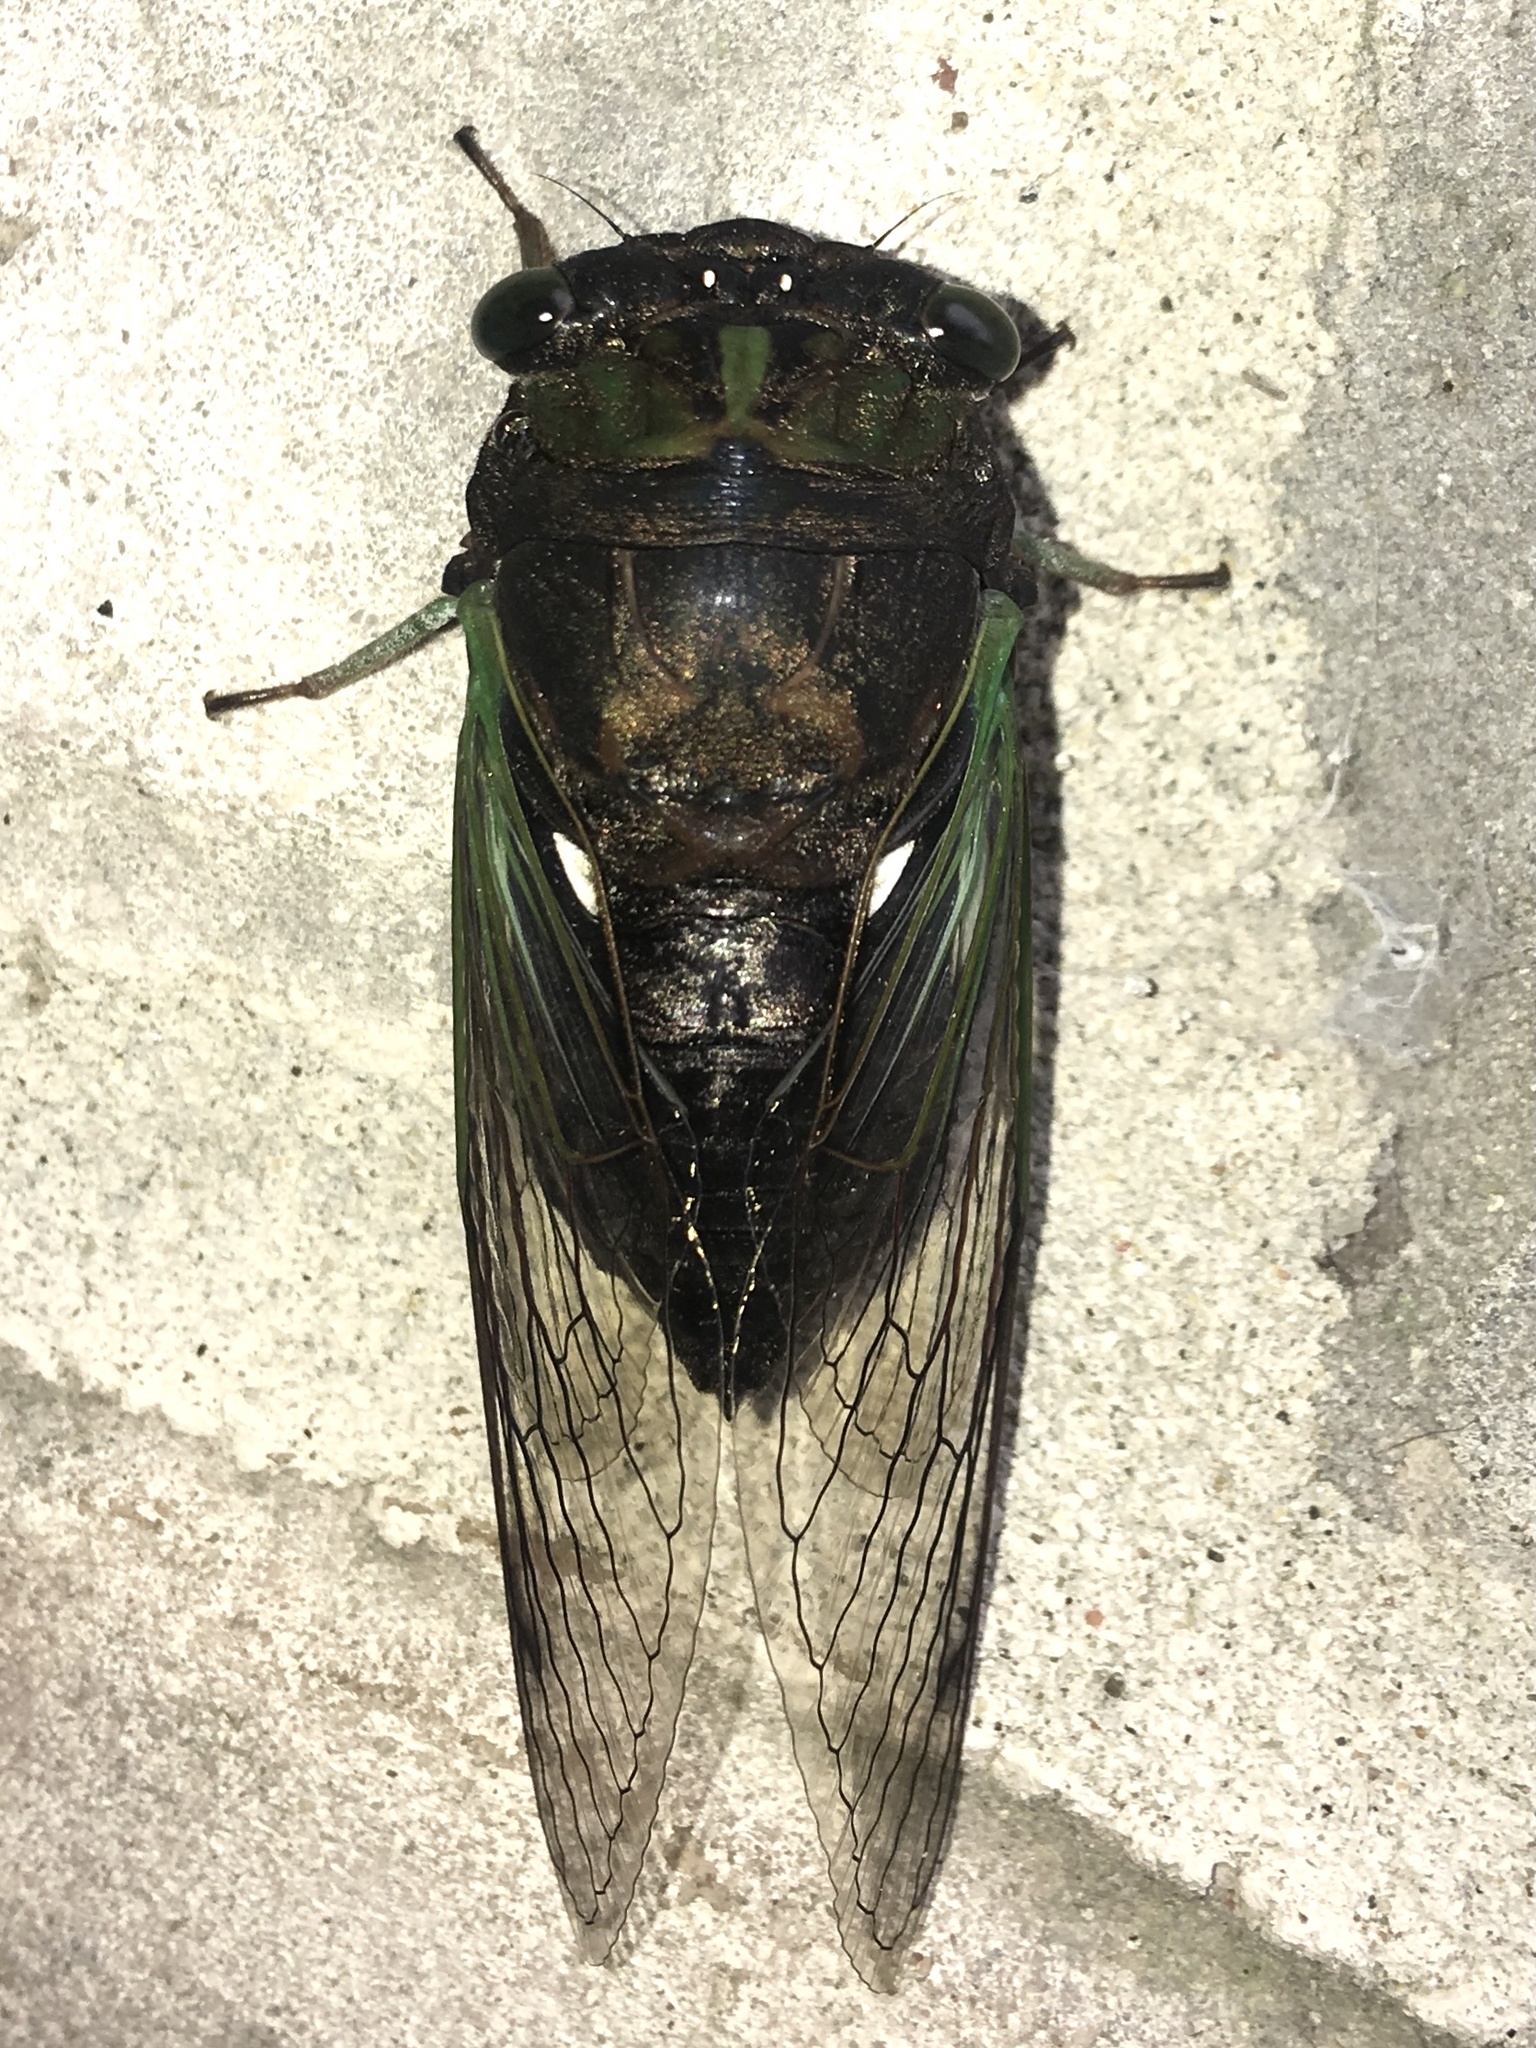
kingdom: Animalia
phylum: Arthropoda
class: Insecta
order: Hemiptera
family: Cicadidae
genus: Neotibicen
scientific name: Neotibicen tibicen
